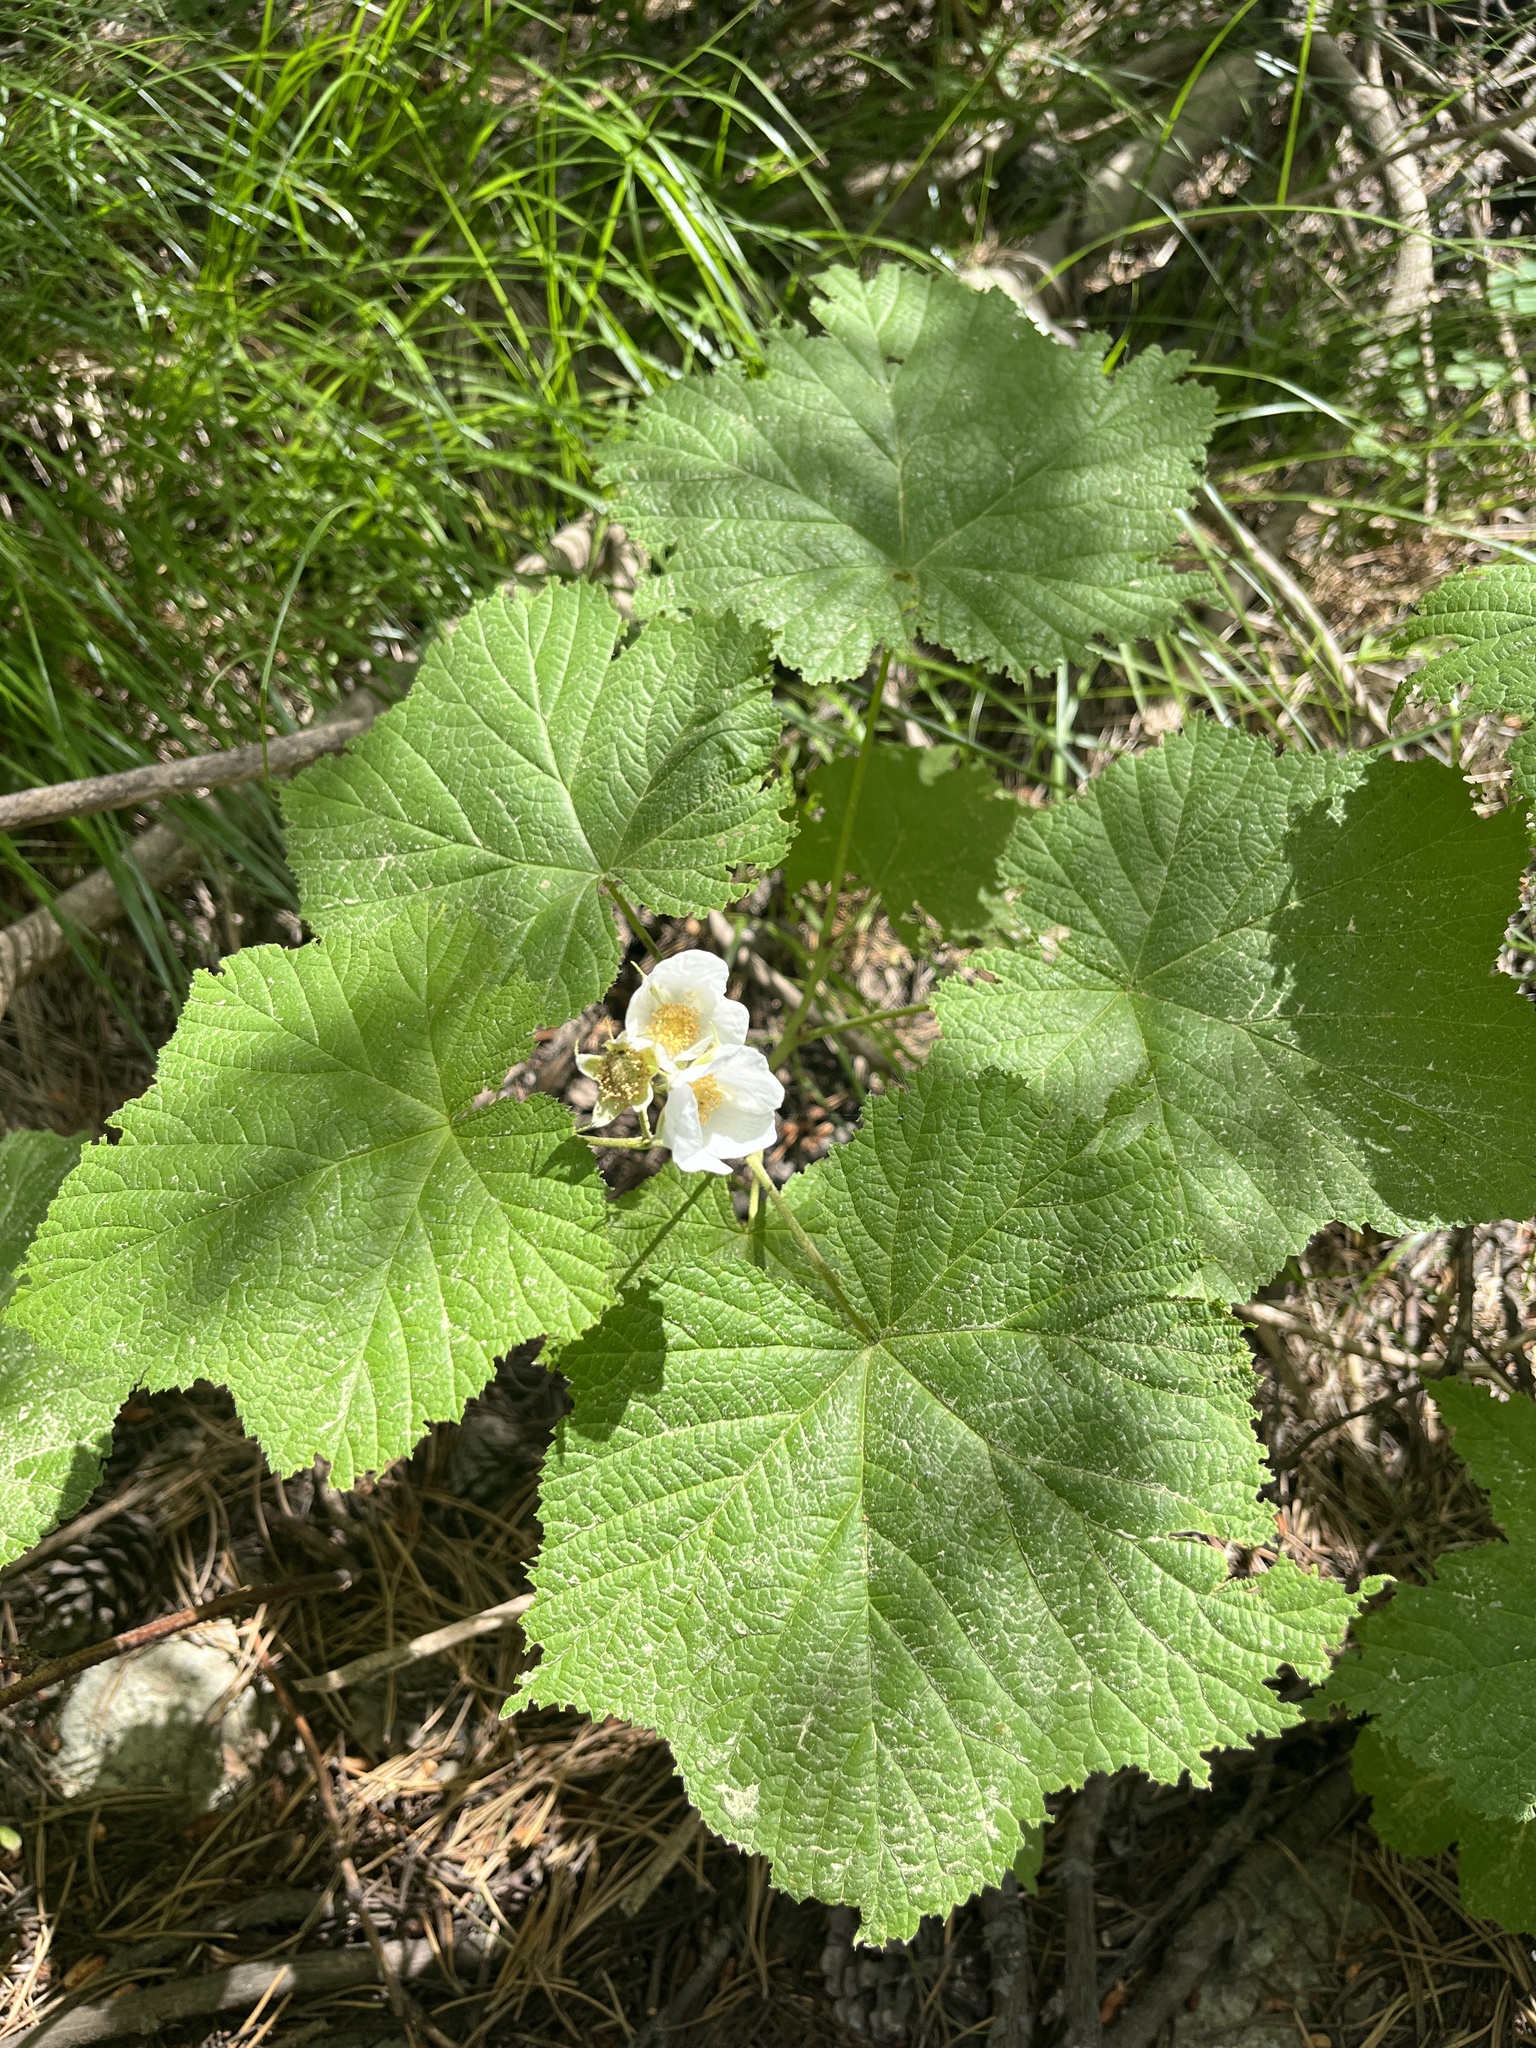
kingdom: Plantae
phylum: Tracheophyta
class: Magnoliopsida
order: Rosales
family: Rosaceae
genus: Rubus
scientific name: Rubus parviflorus
